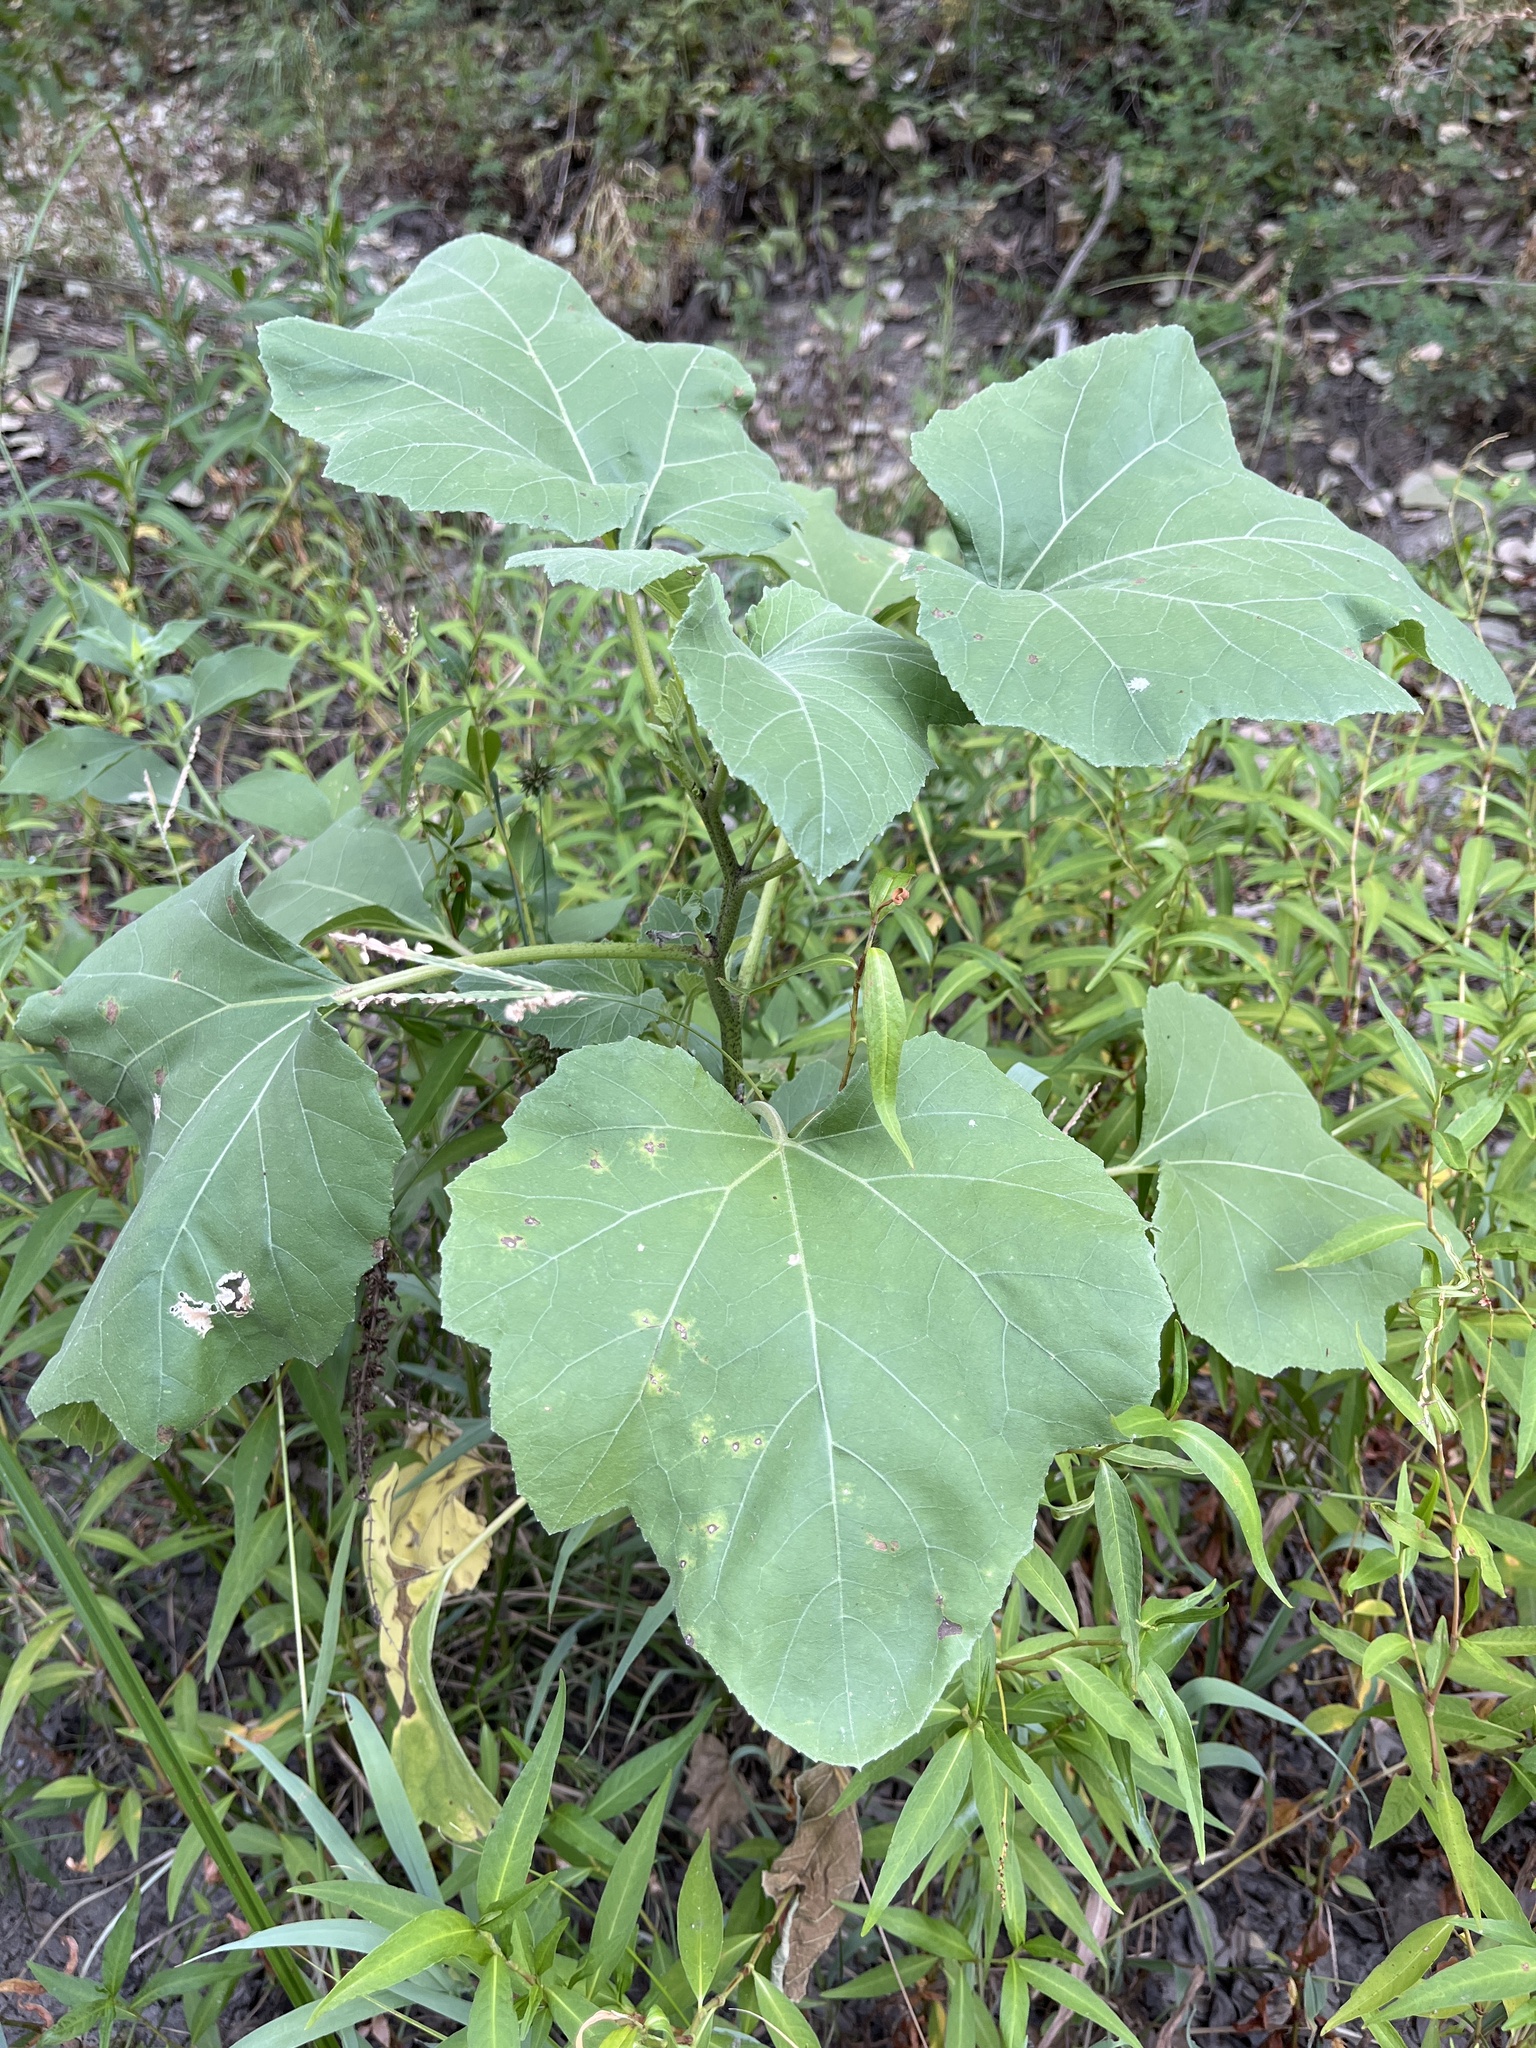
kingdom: Plantae
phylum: Tracheophyta
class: Magnoliopsida
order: Asterales
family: Asteraceae
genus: Xanthium
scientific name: Xanthium strumarium
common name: Rough cocklebur
